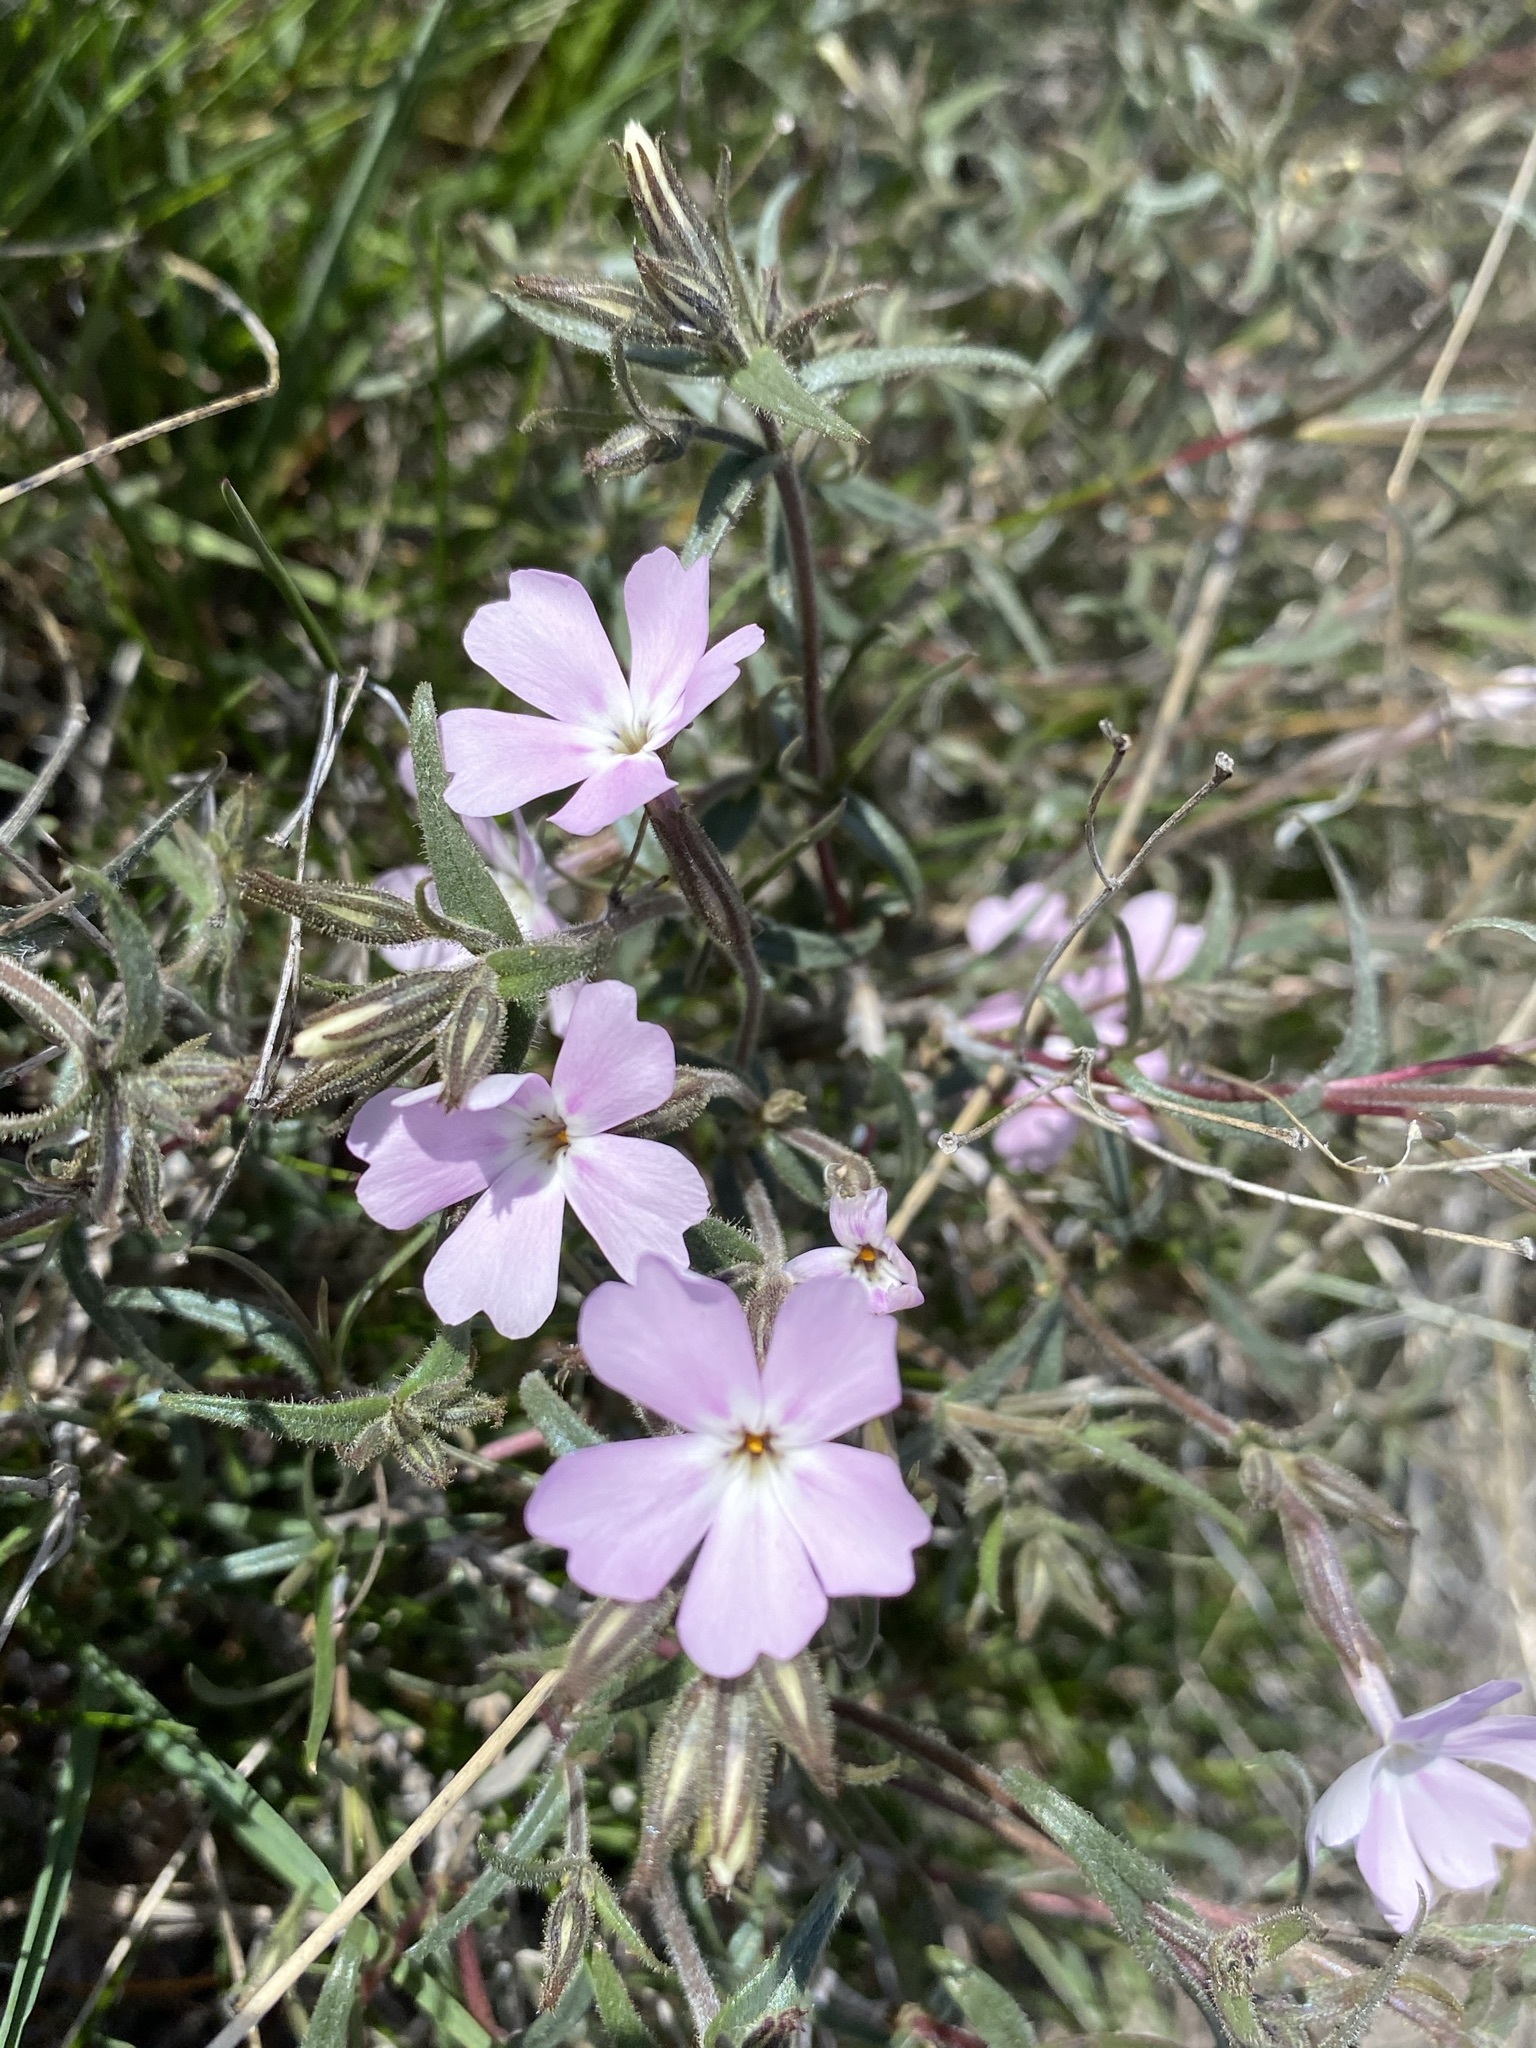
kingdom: Plantae
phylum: Tracheophyta
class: Magnoliopsida
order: Ericales
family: Polemoniaceae
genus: Phlox
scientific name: Phlox speciosa
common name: Bush phlox
